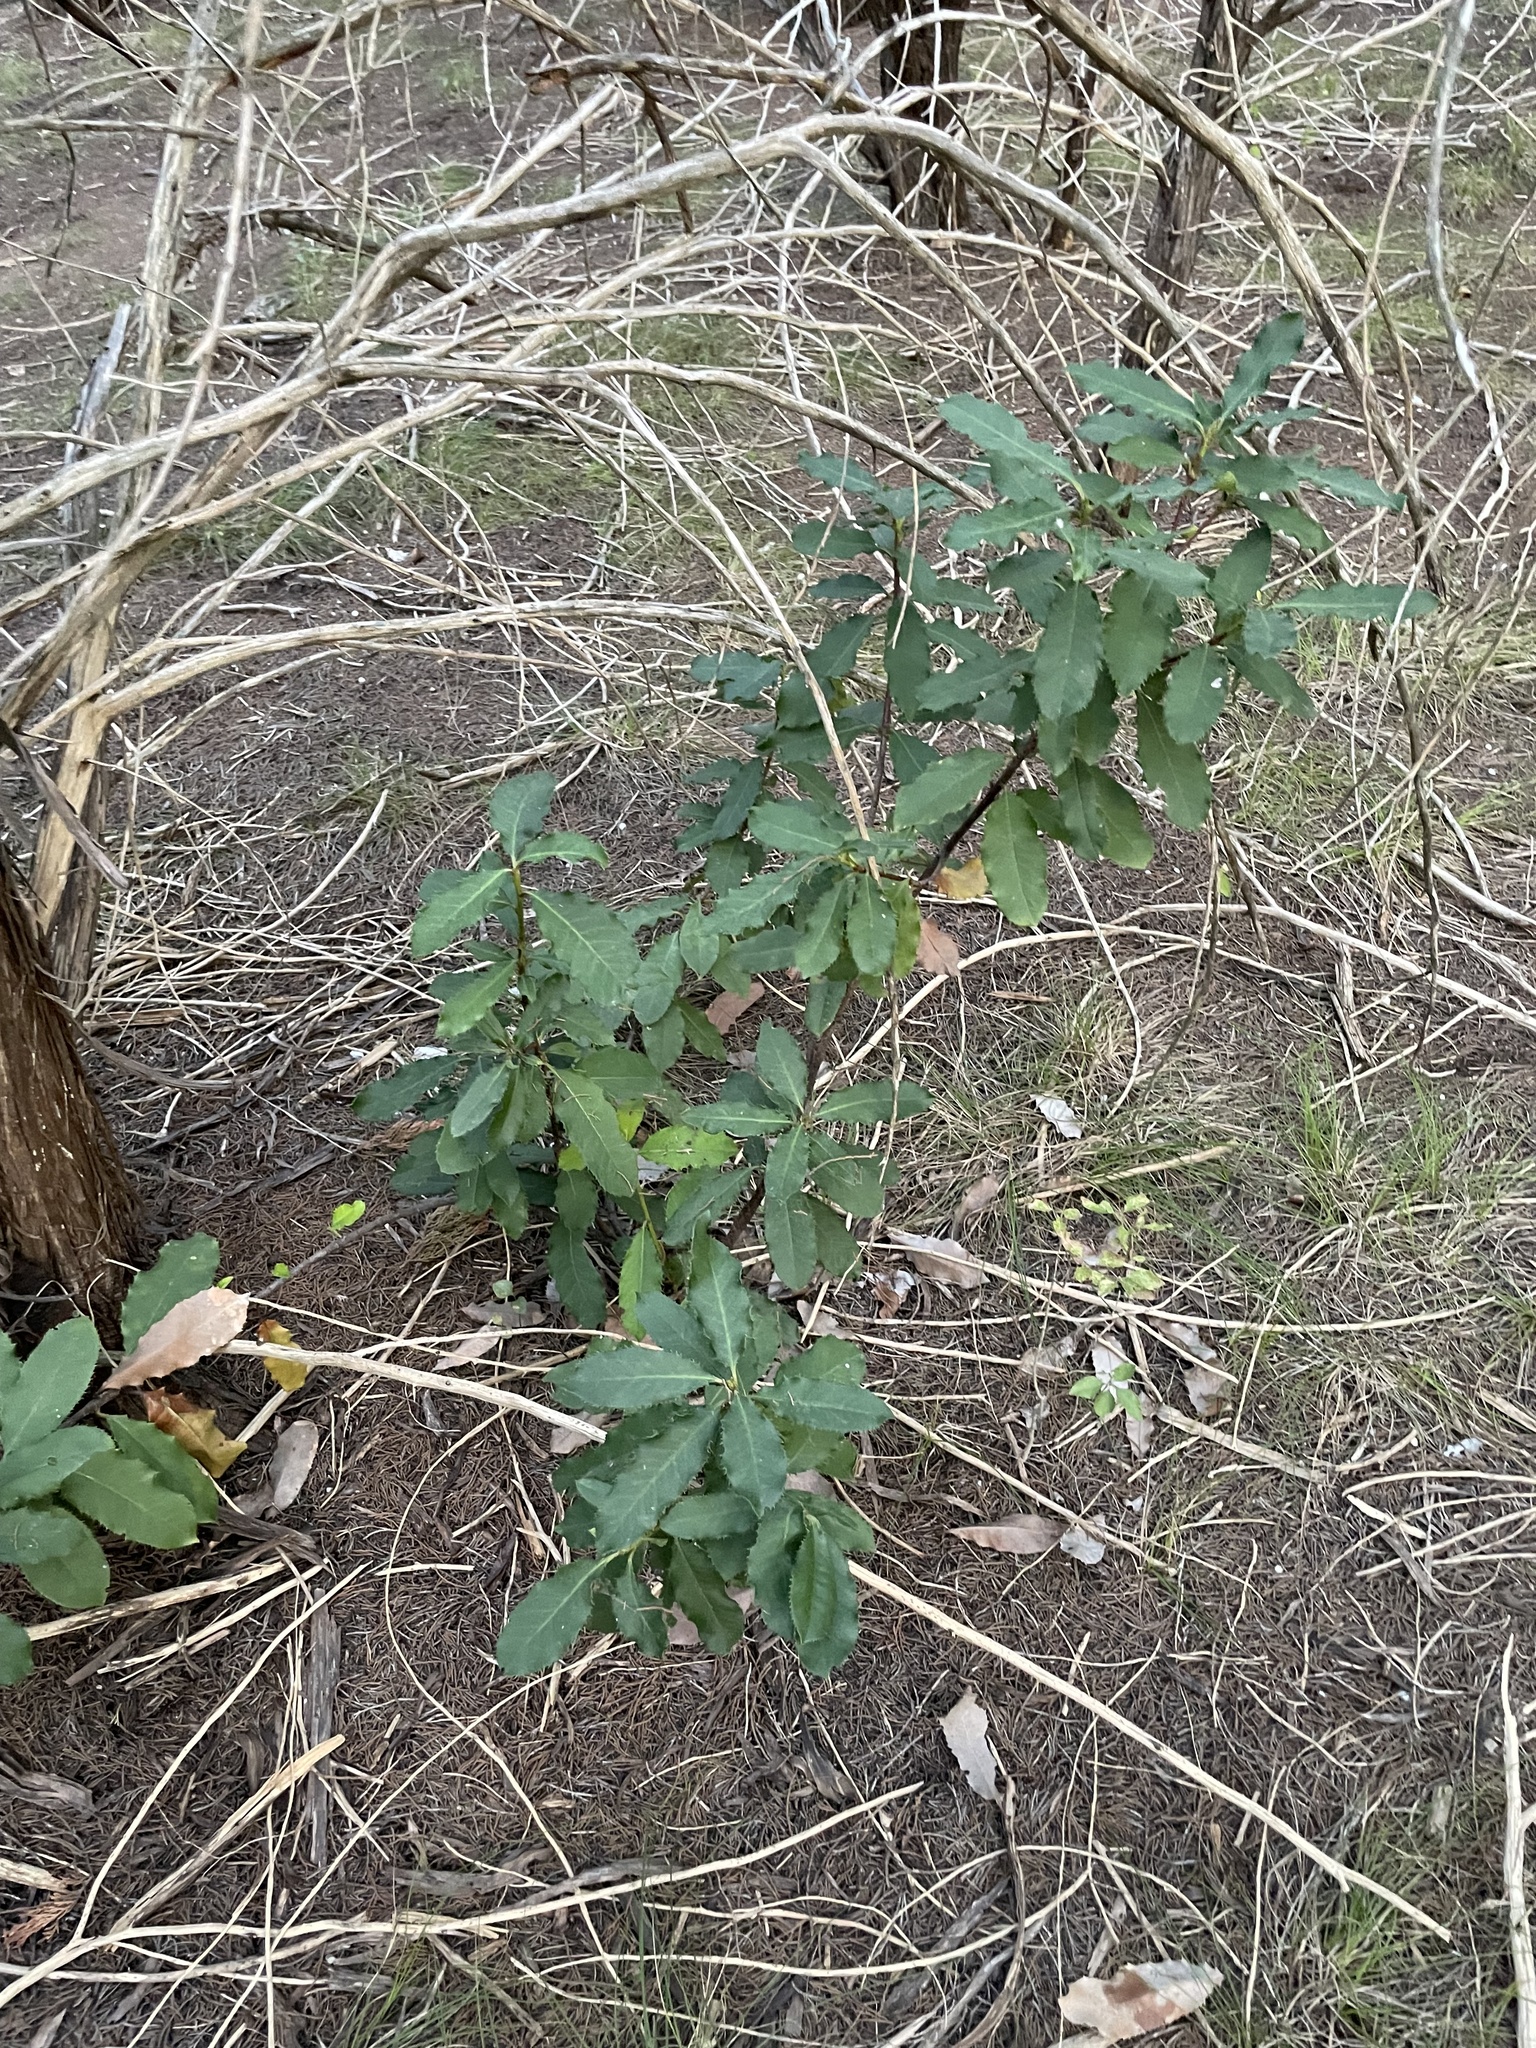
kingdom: Plantae
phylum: Tracheophyta
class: Magnoliopsida
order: Rosales
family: Rosaceae
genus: Photinia
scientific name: Photinia serratifolia
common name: Taiwanese photinia
